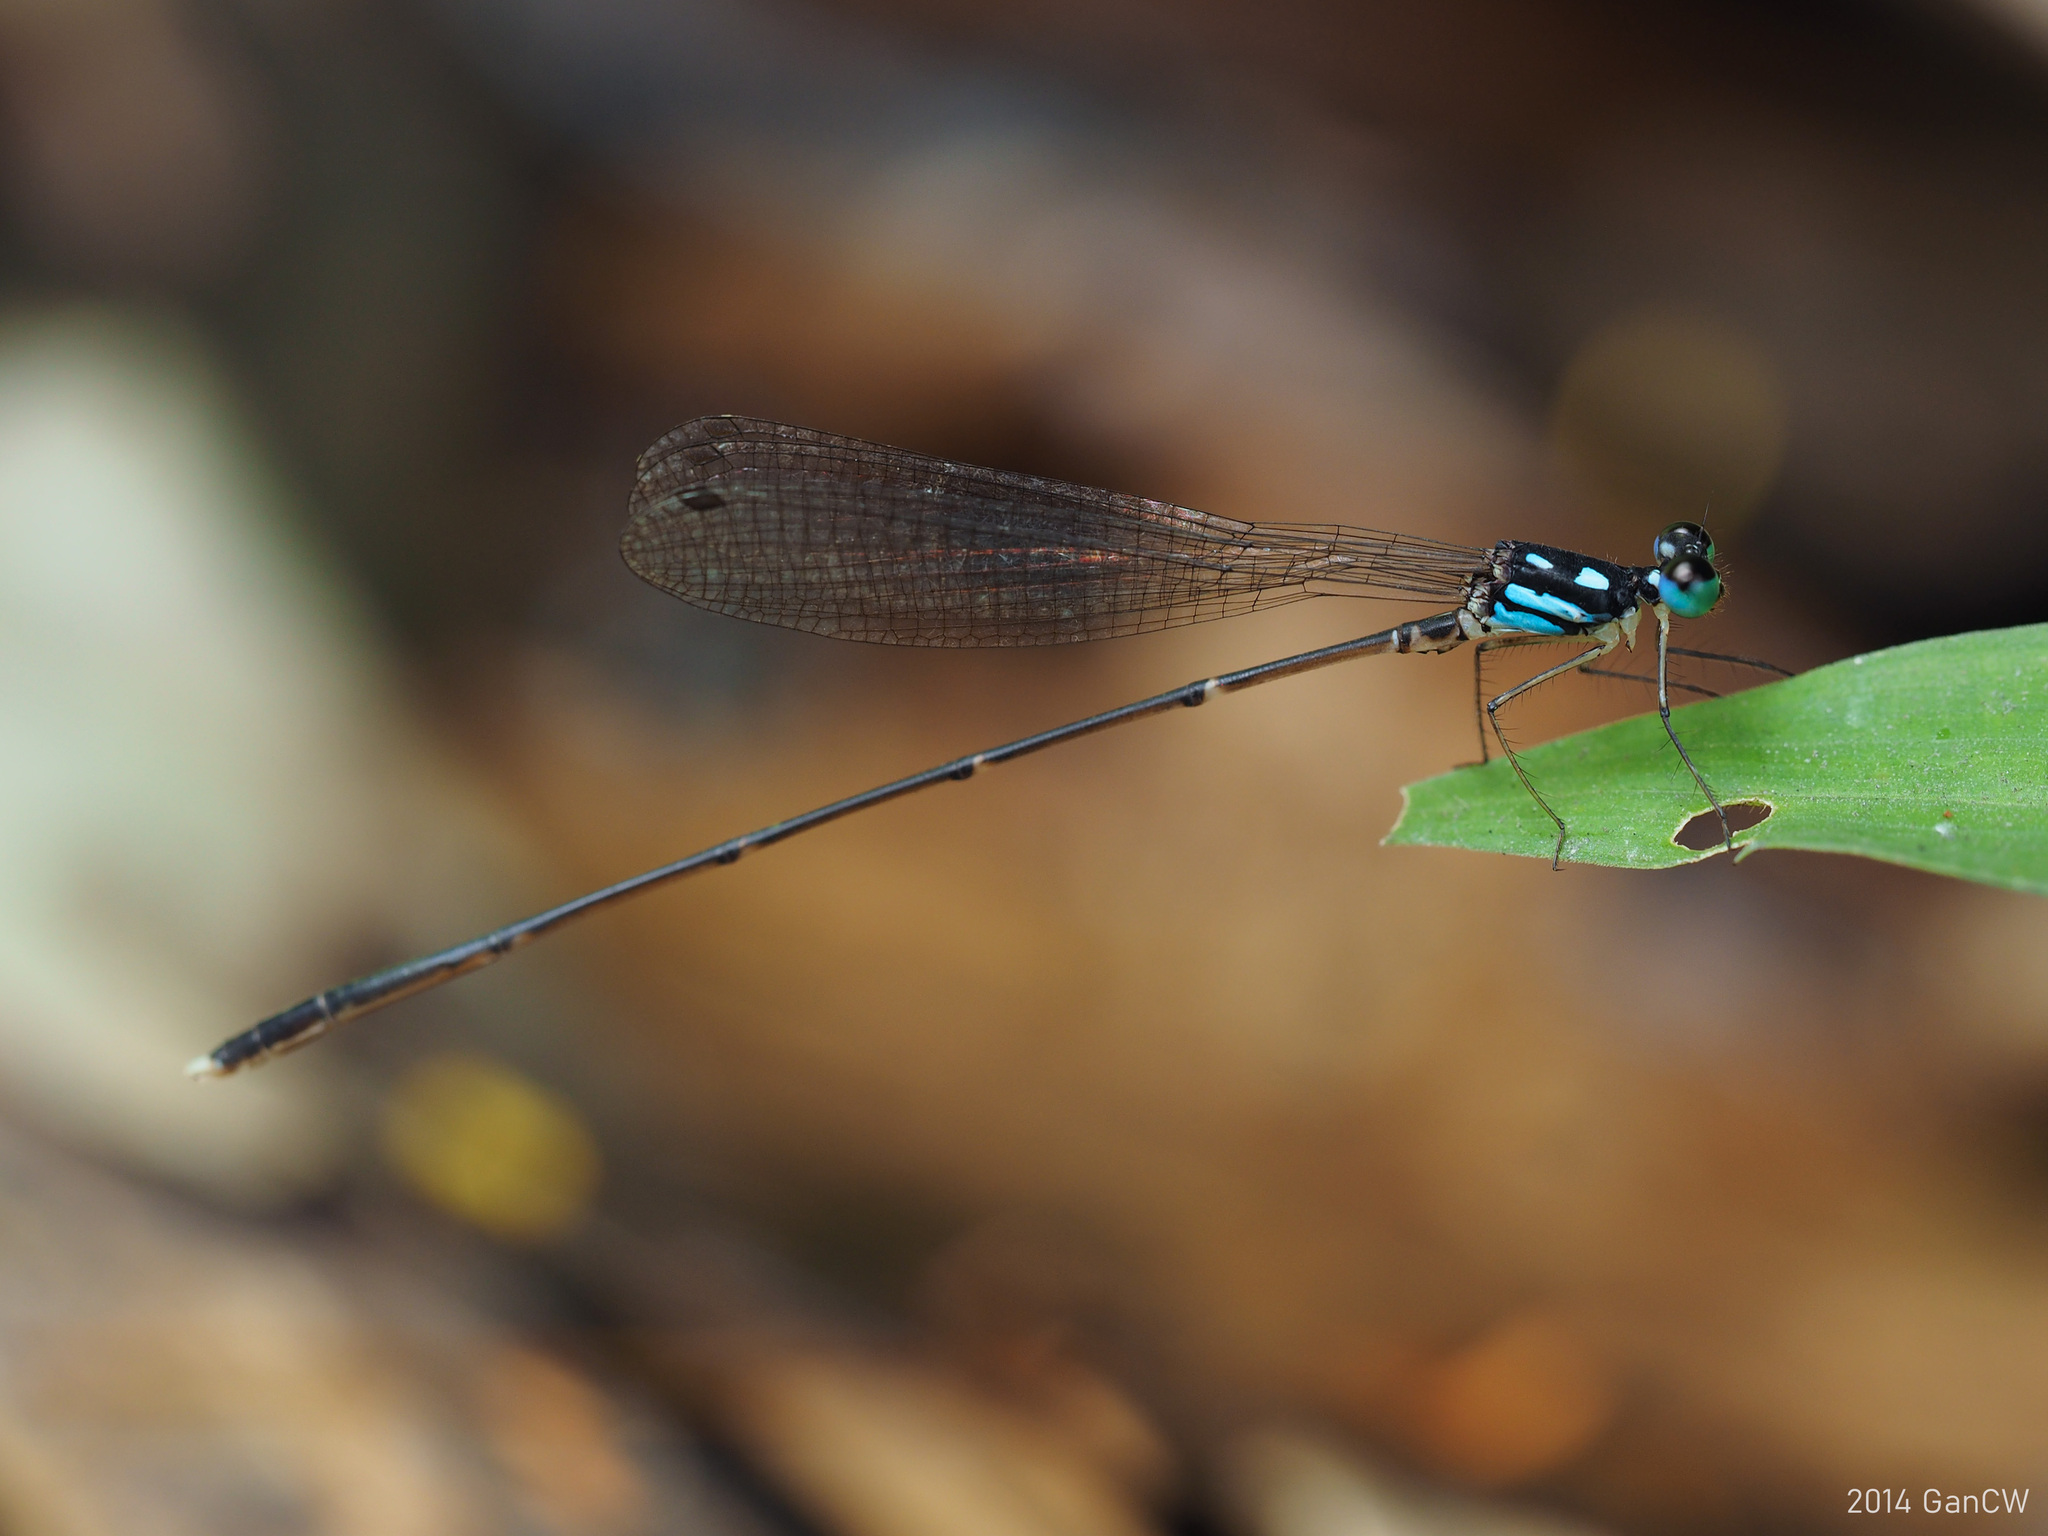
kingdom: Animalia
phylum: Arthropoda
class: Insecta
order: Odonata
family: Platycnemididae
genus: Coeliccia
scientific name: Coeliccia albicauda
